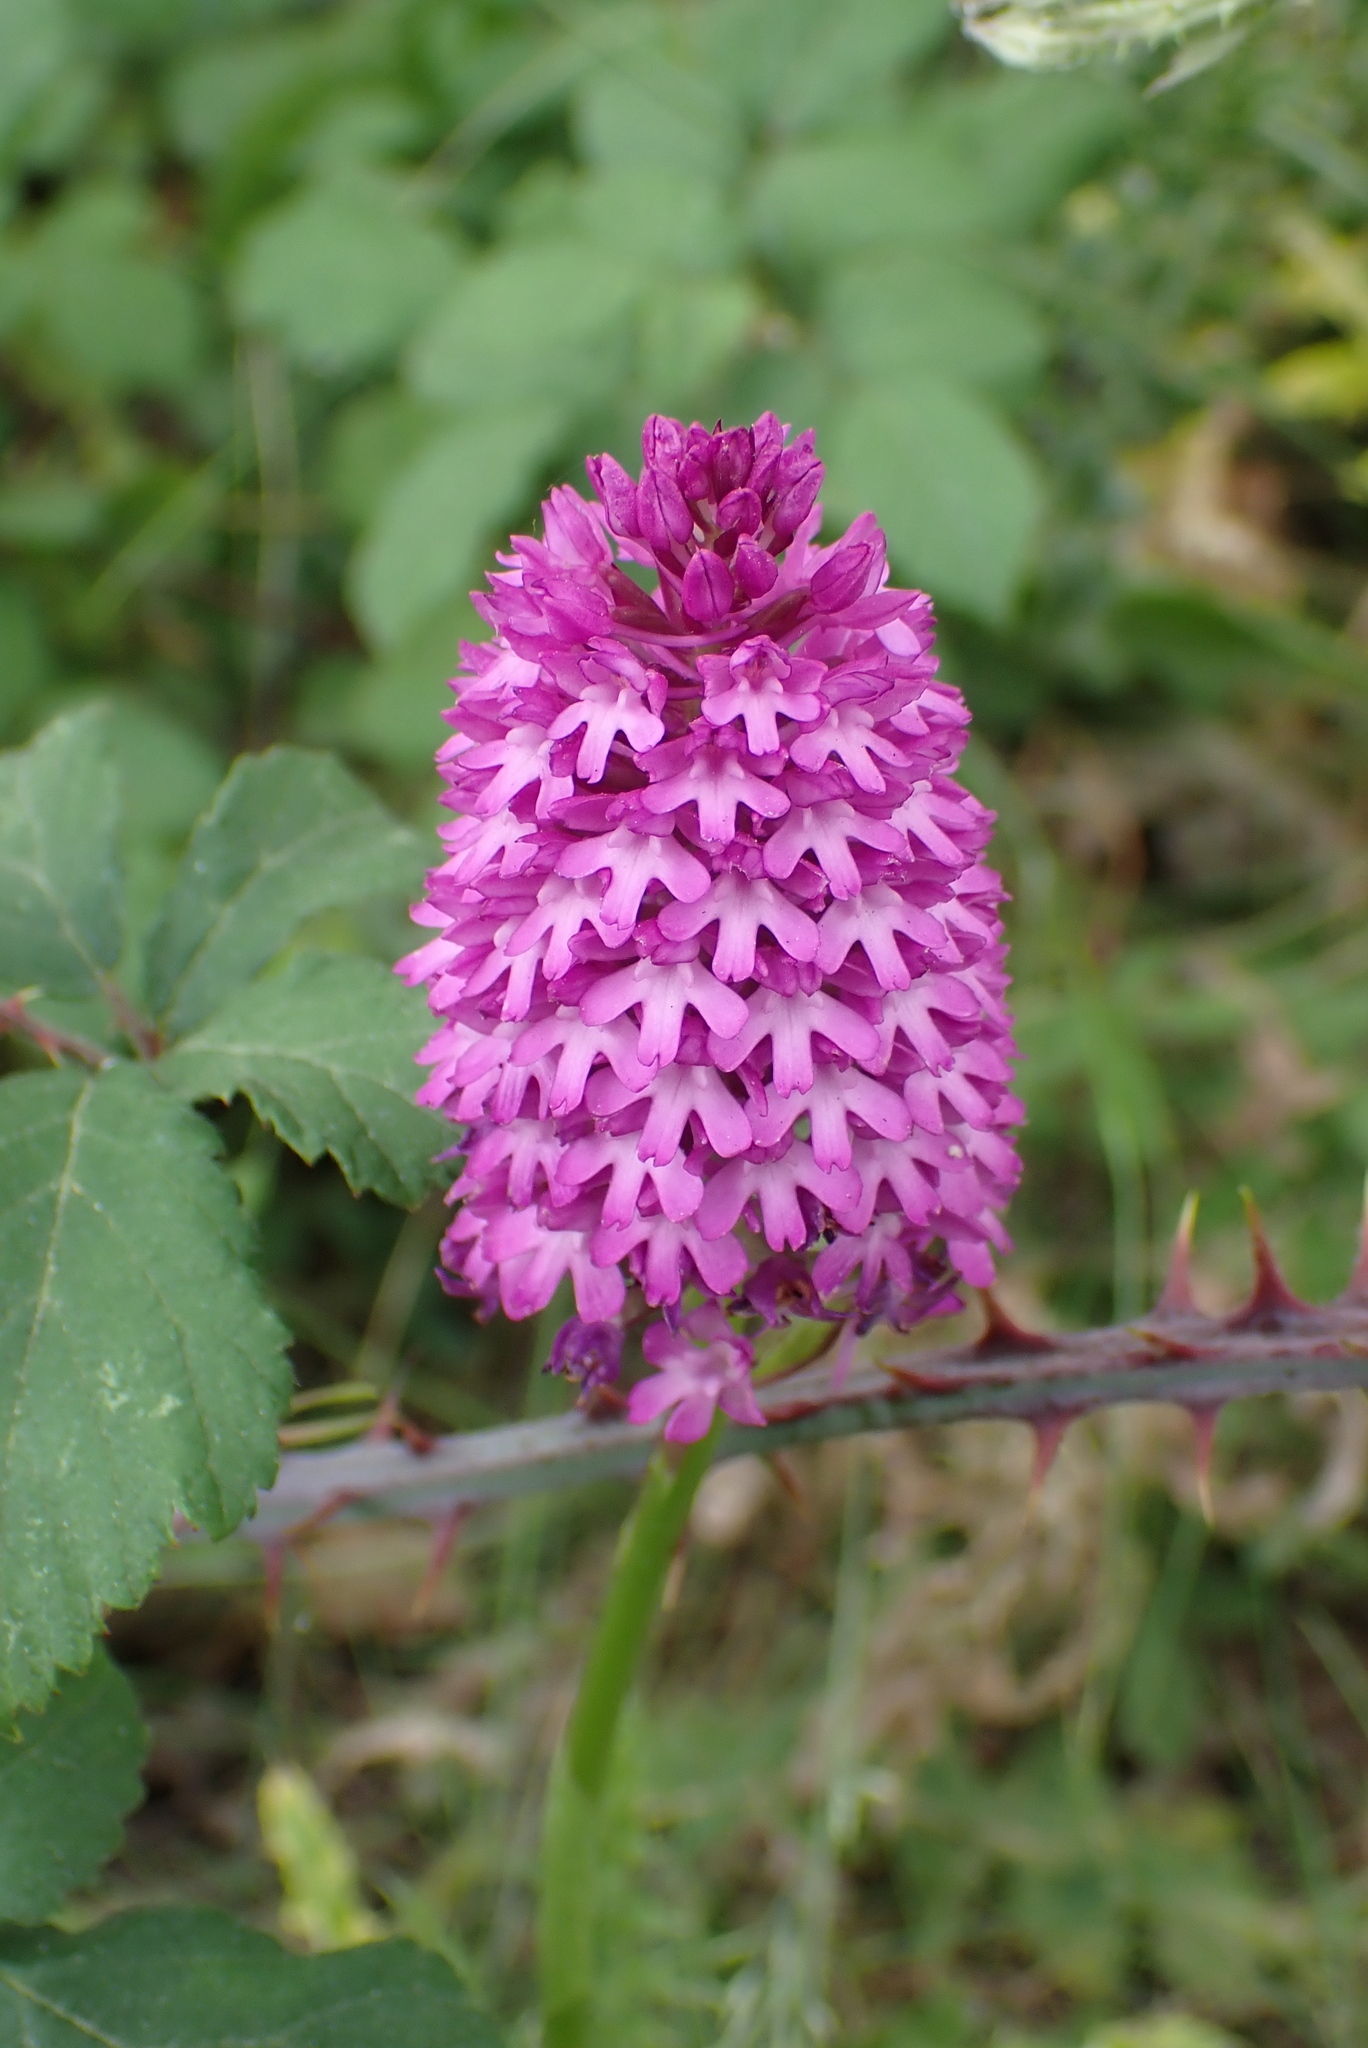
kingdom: Plantae
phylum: Tracheophyta
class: Liliopsida
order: Asparagales
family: Orchidaceae
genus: Anacamptis
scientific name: Anacamptis pyramidalis
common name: Pyramidal orchid
